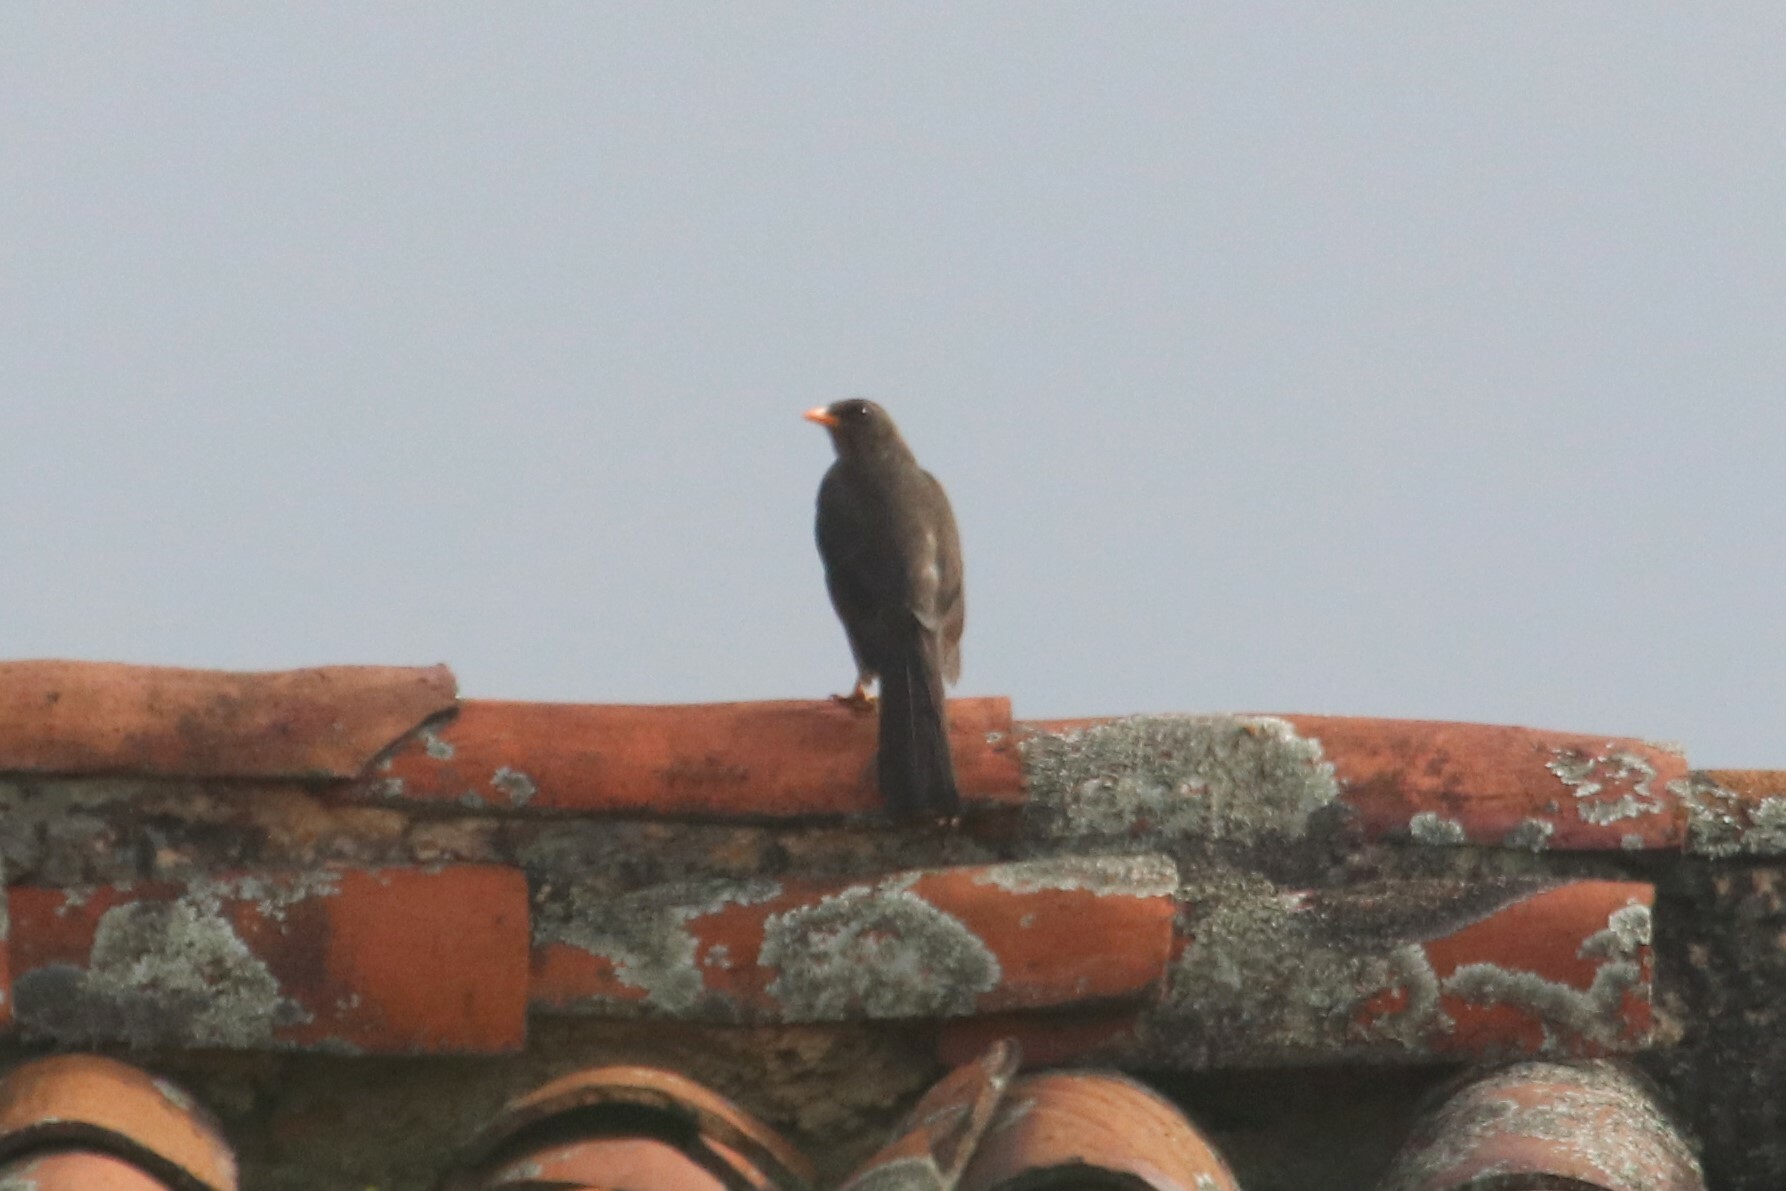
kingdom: Animalia
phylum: Chordata
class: Aves
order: Passeriformes
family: Turdidae
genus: Turdus
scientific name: Turdus fuscater
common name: Great thrush
